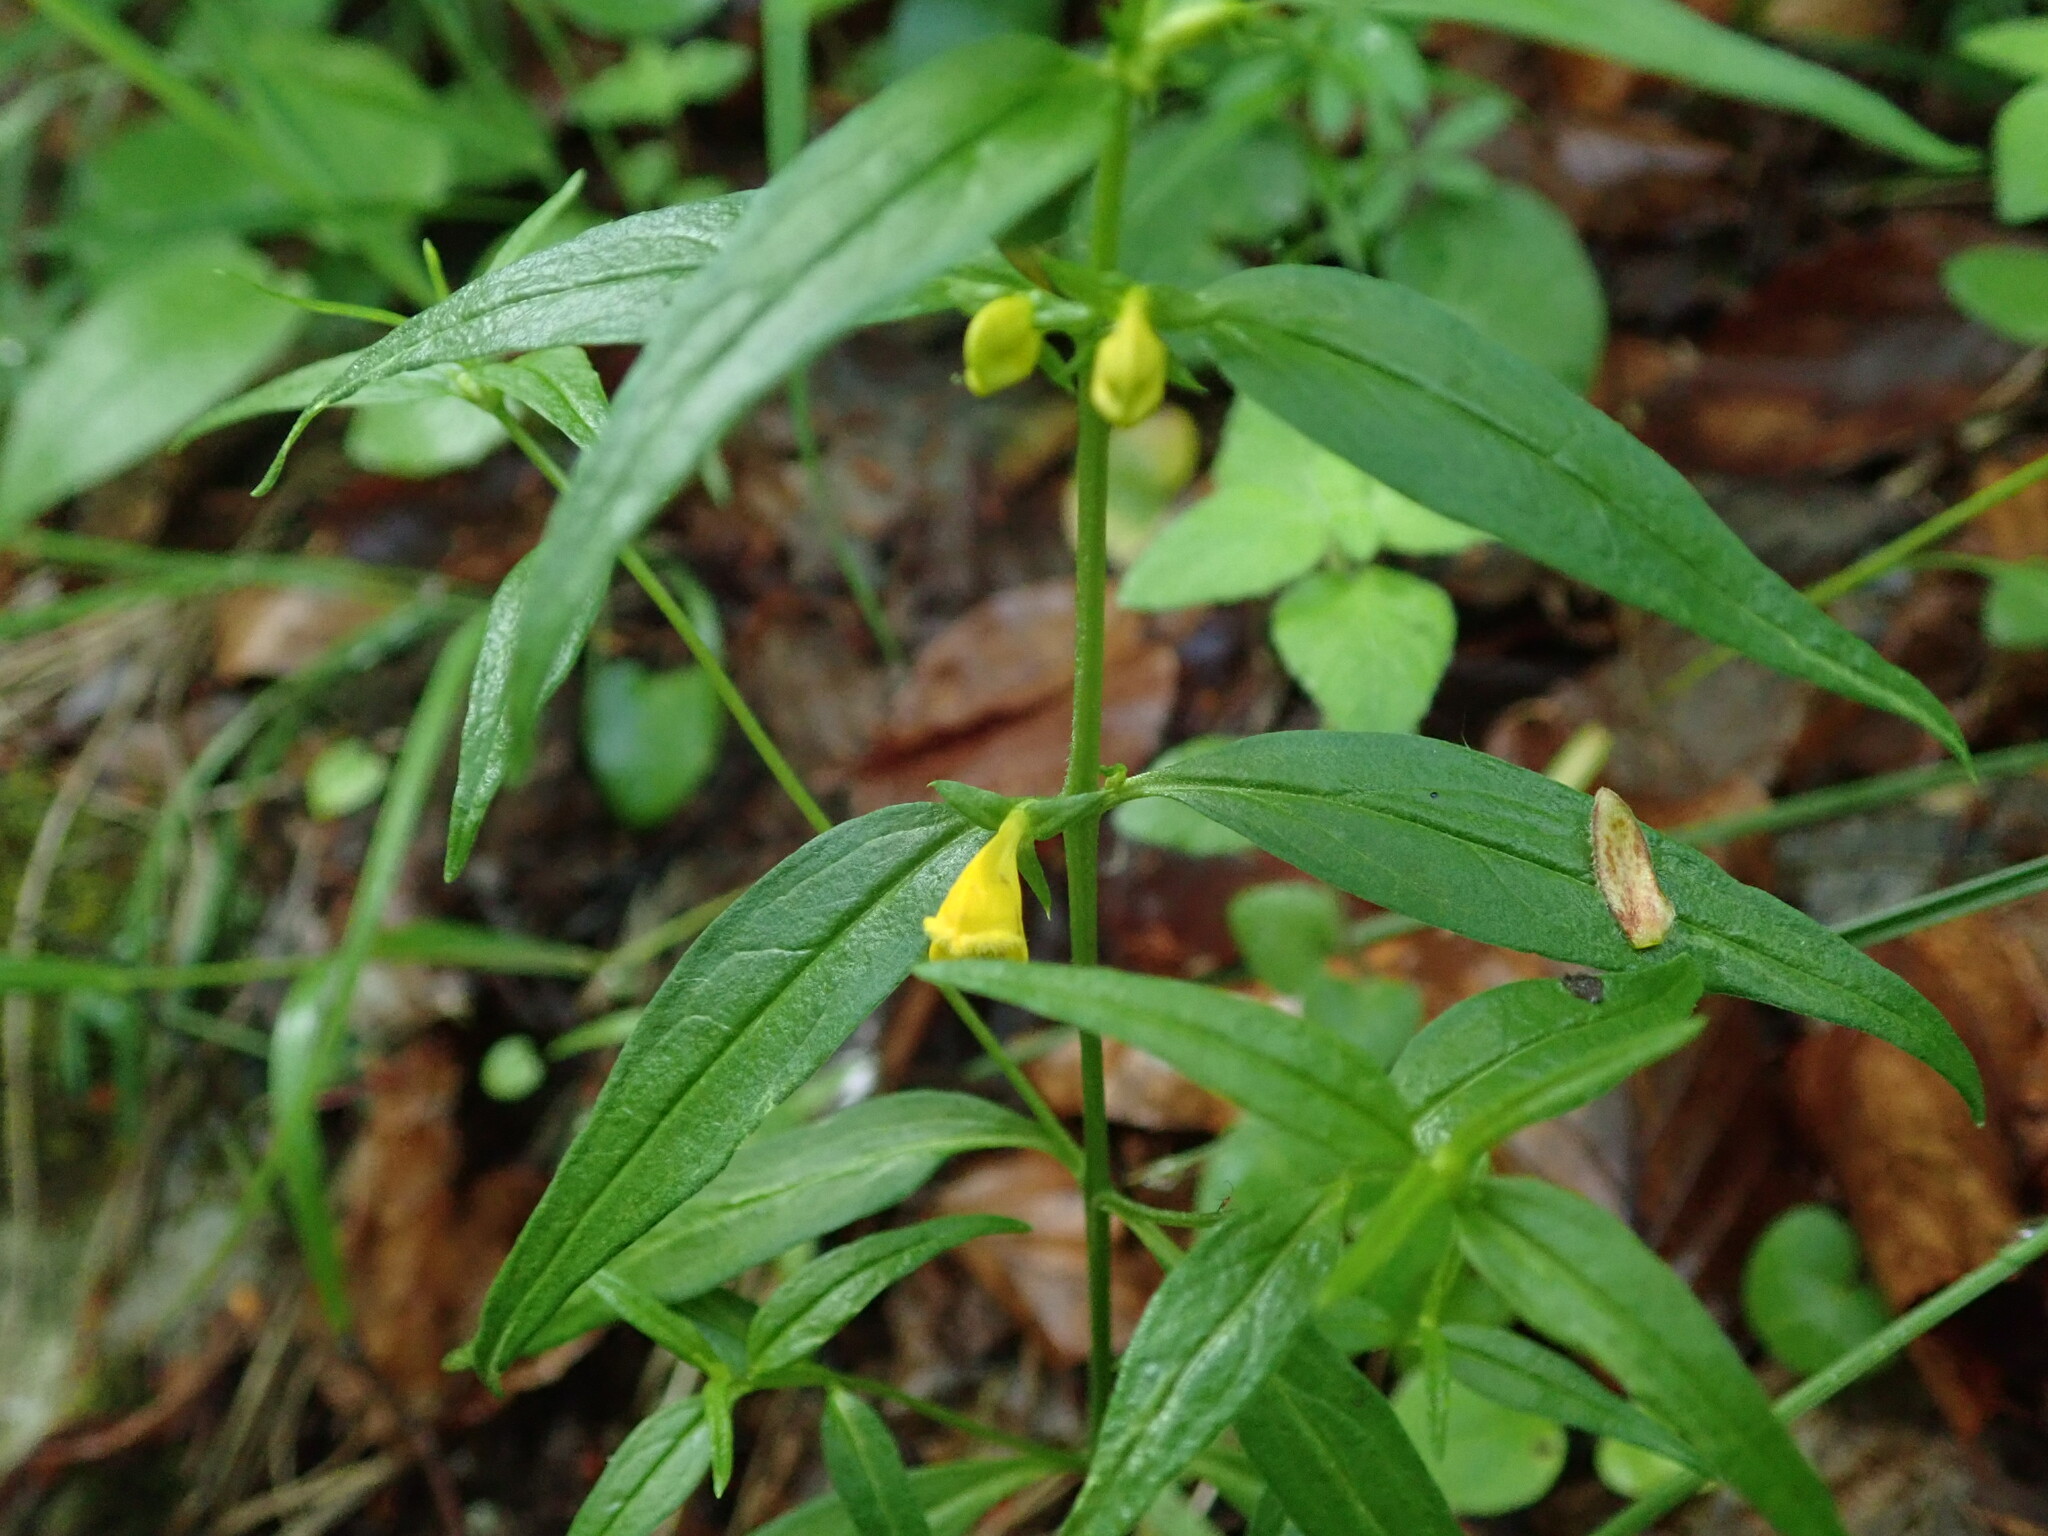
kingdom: Plantae
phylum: Tracheophyta
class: Magnoliopsida
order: Lamiales
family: Orobanchaceae
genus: Melampyrum
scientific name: Melampyrum sylvaticum
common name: Small cow-wheat
